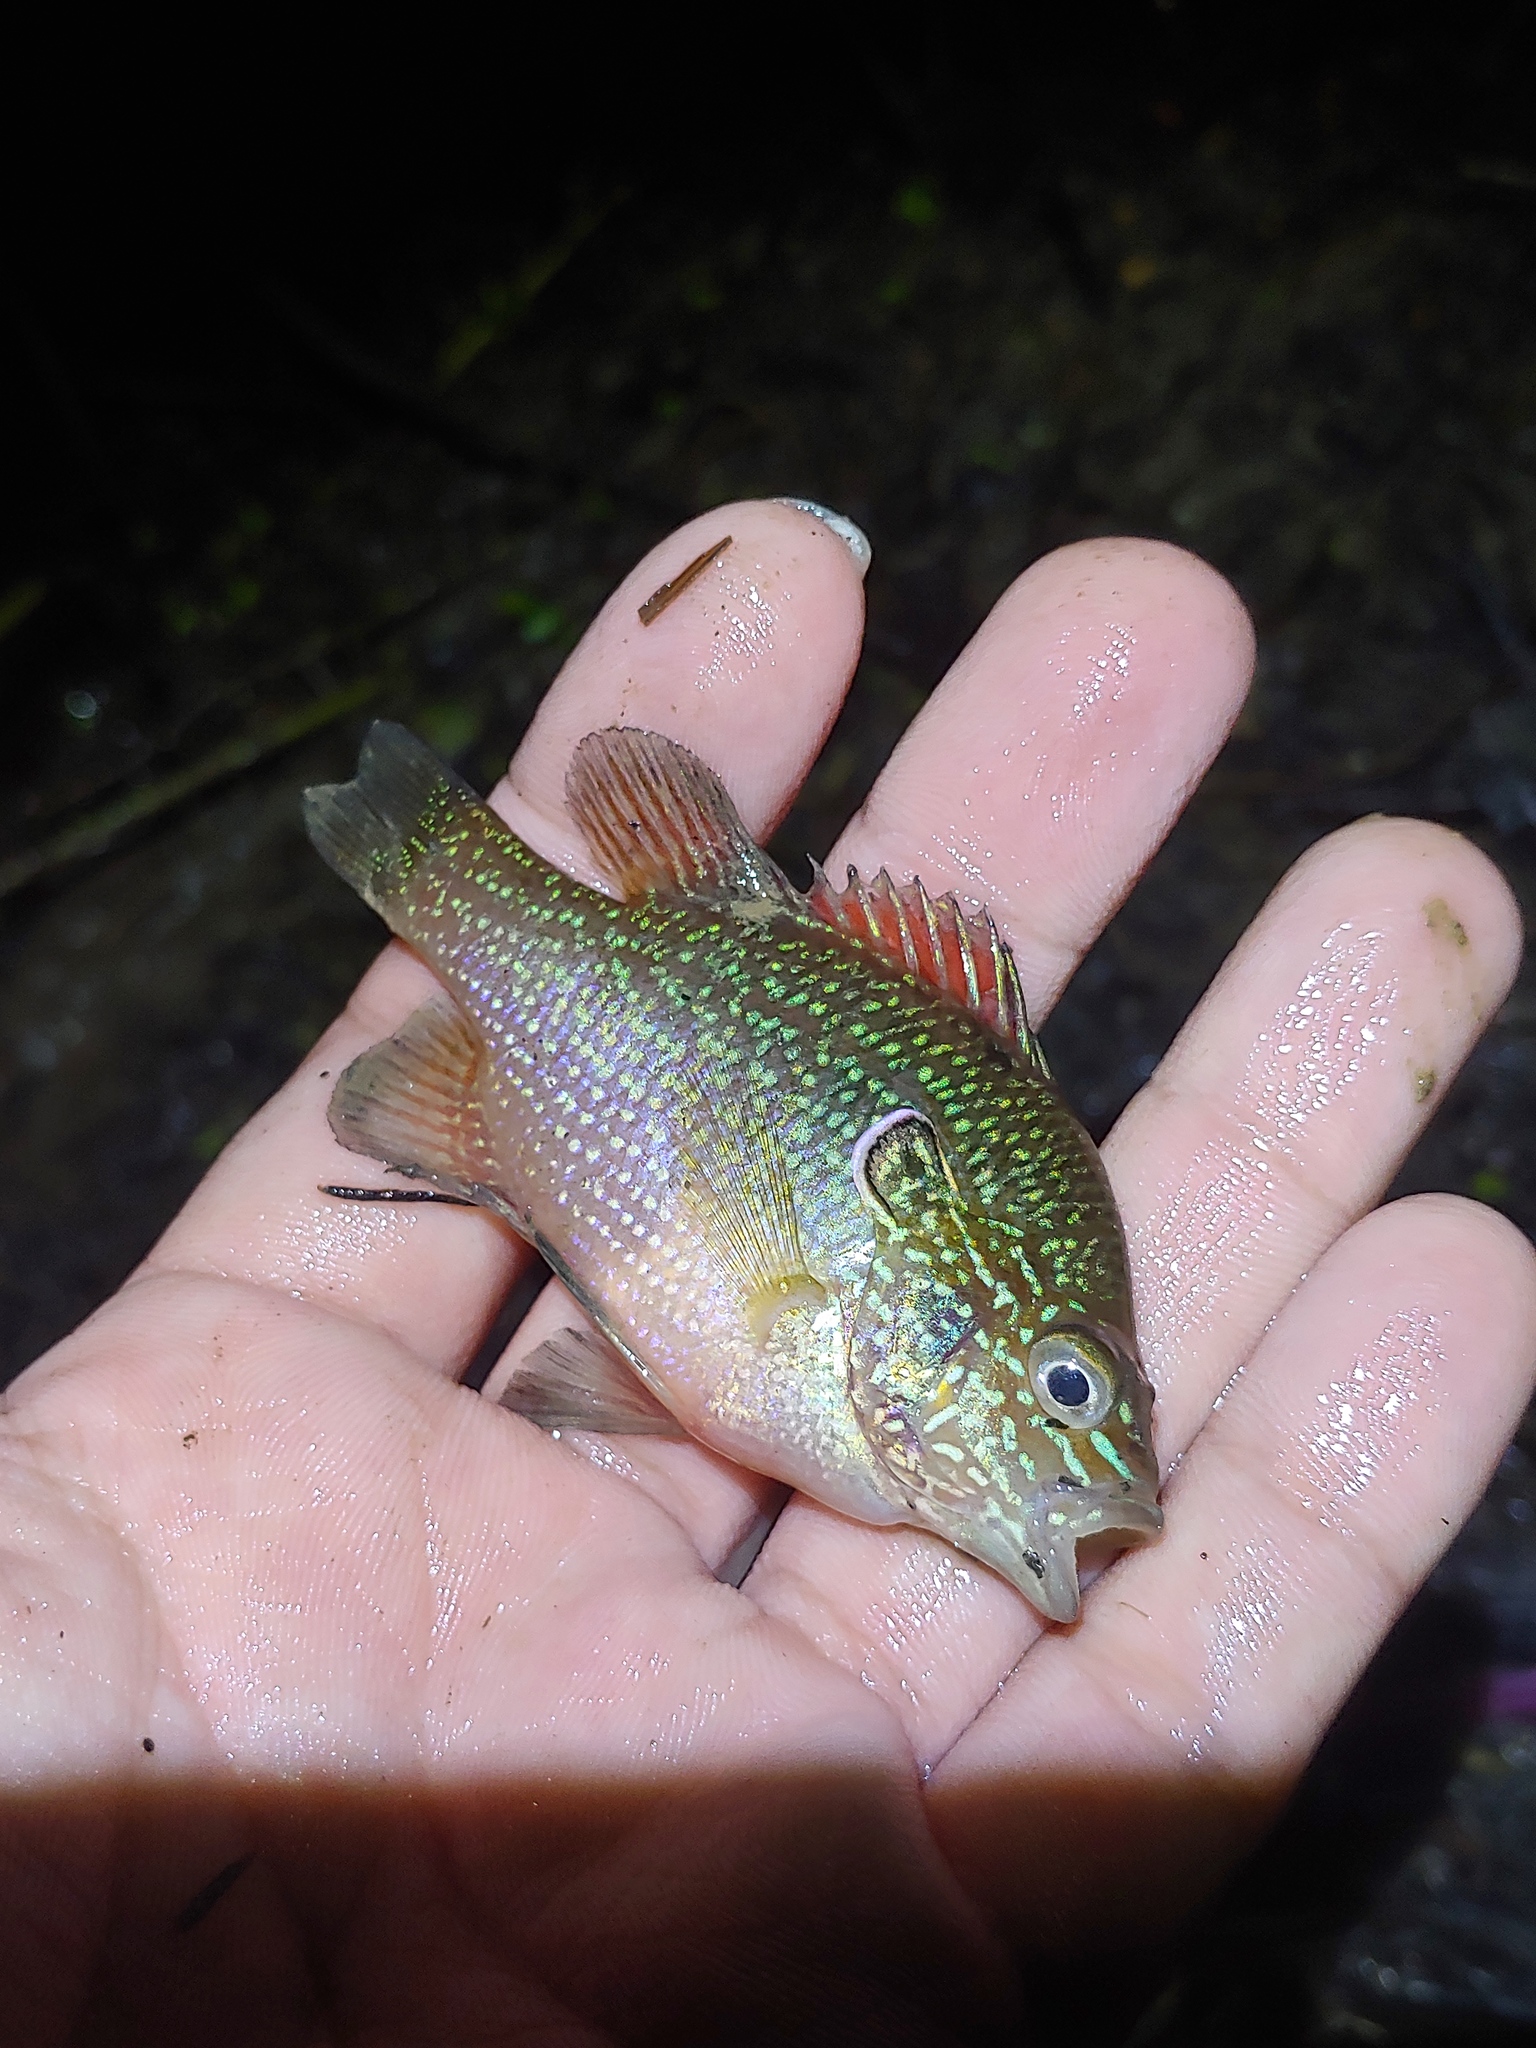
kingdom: Animalia
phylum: Chordata
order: Perciformes
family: Centrarchidae
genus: Lepomis
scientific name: Lepomis marginatus
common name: Dollar sunfish
